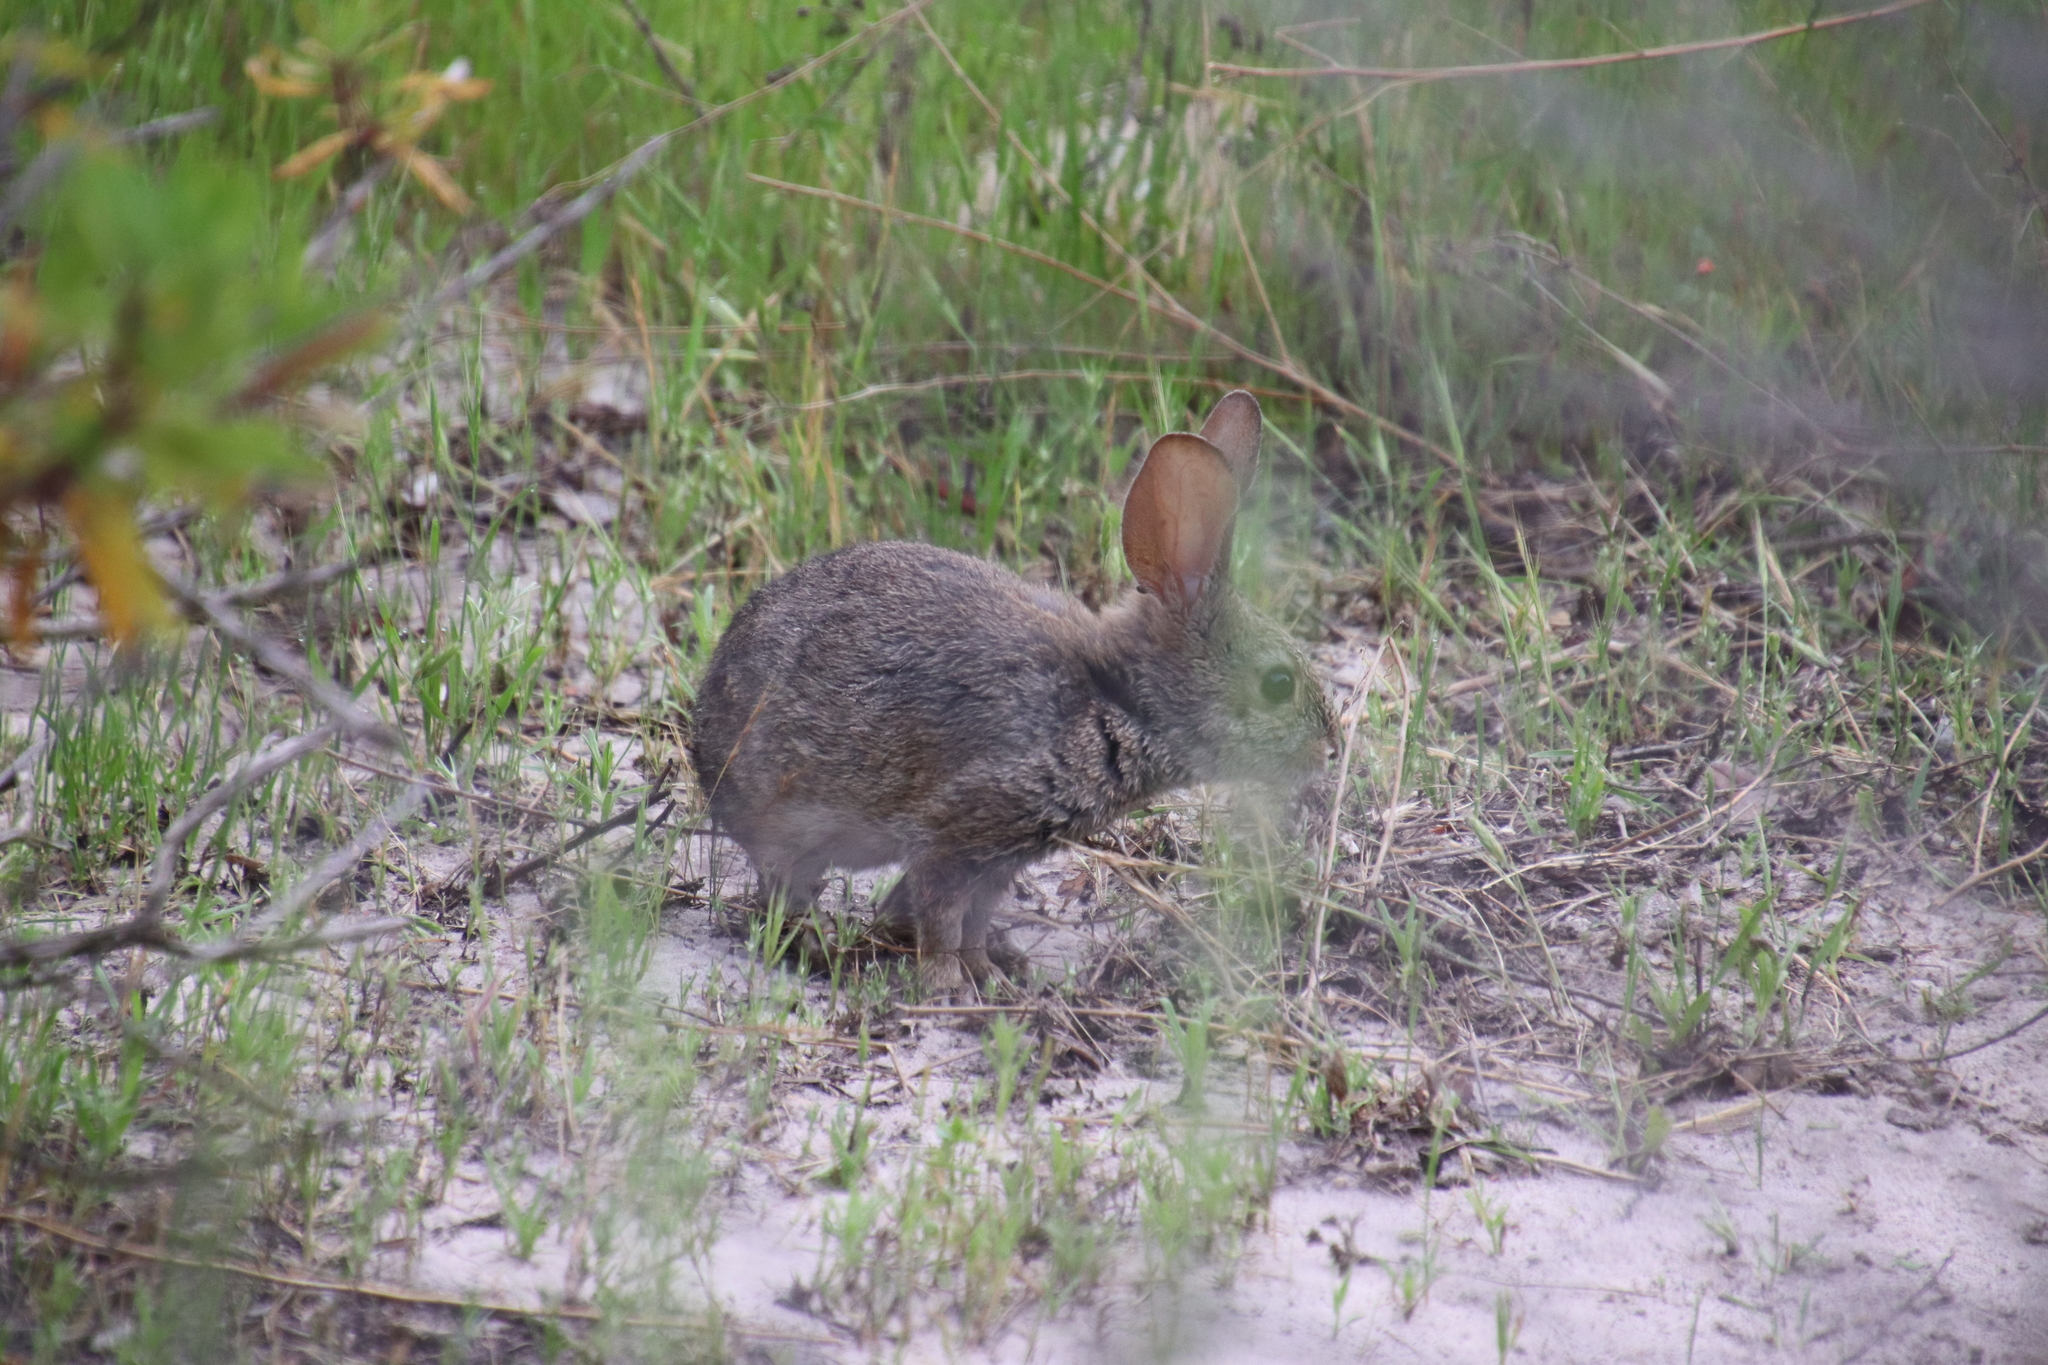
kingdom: Animalia
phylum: Chordata
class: Mammalia
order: Lagomorpha
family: Leporidae
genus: Sylvilagus
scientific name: Sylvilagus bachmani
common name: Brush rabbit
